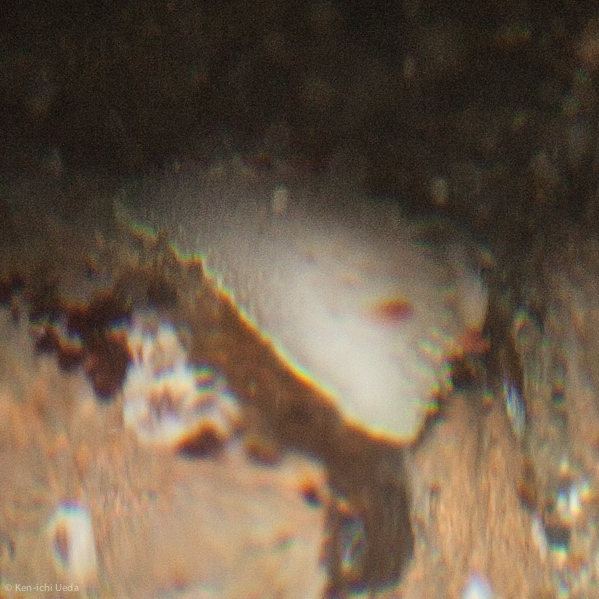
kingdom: Animalia
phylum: Mollusca
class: Gastropoda
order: Nudibranchia
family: Onchidorididae
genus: Acanthodoris
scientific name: Acanthodoris nanaimoensis
